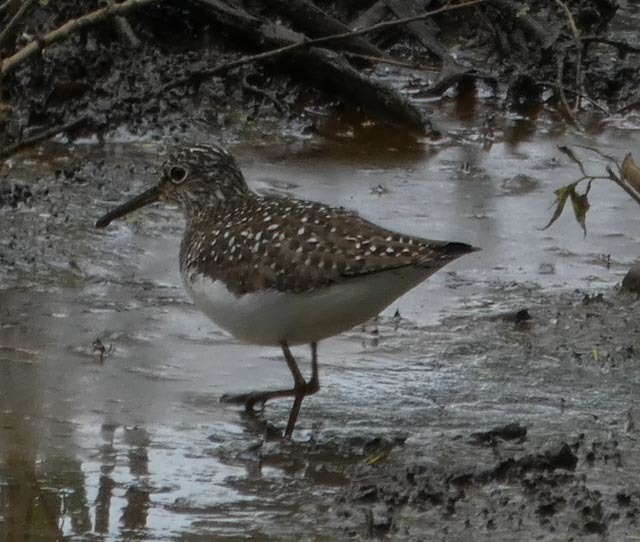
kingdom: Animalia
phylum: Chordata
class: Aves
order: Charadriiformes
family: Scolopacidae
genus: Tringa
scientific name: Tringa solitaria
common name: Solitary sandpiper
